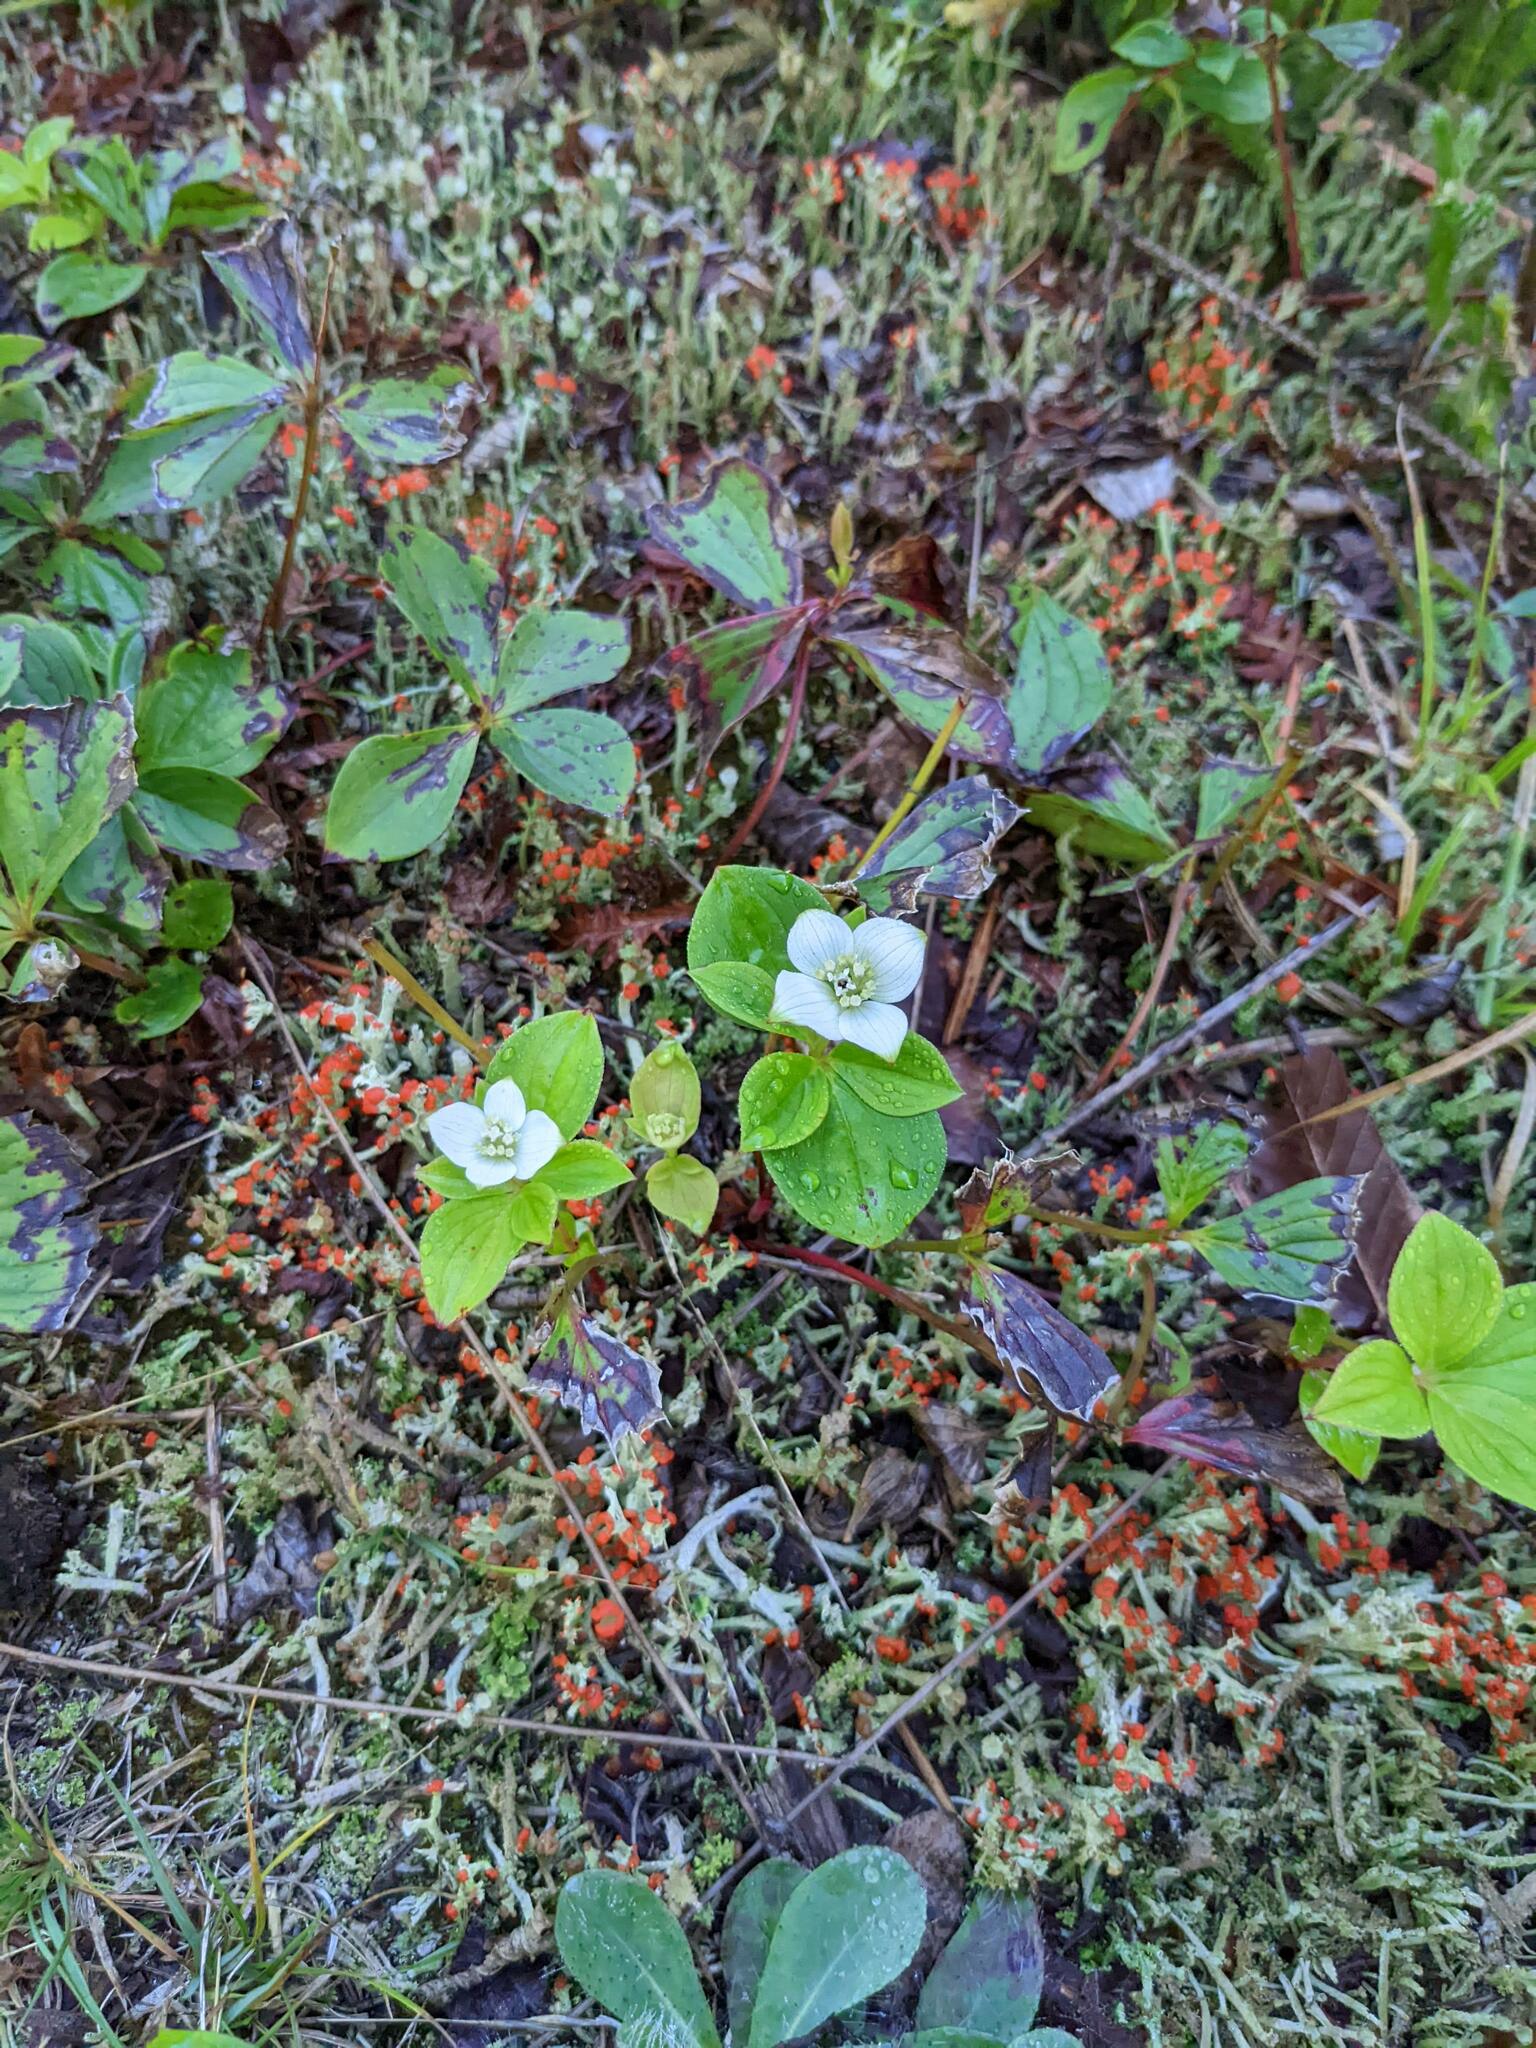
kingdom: Plantae
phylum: Tracheophyta
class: Magnoliopsida
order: Cornales
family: Cornaceae
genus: Cornus
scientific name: Cornus canadensis
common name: Creeping dogwood
